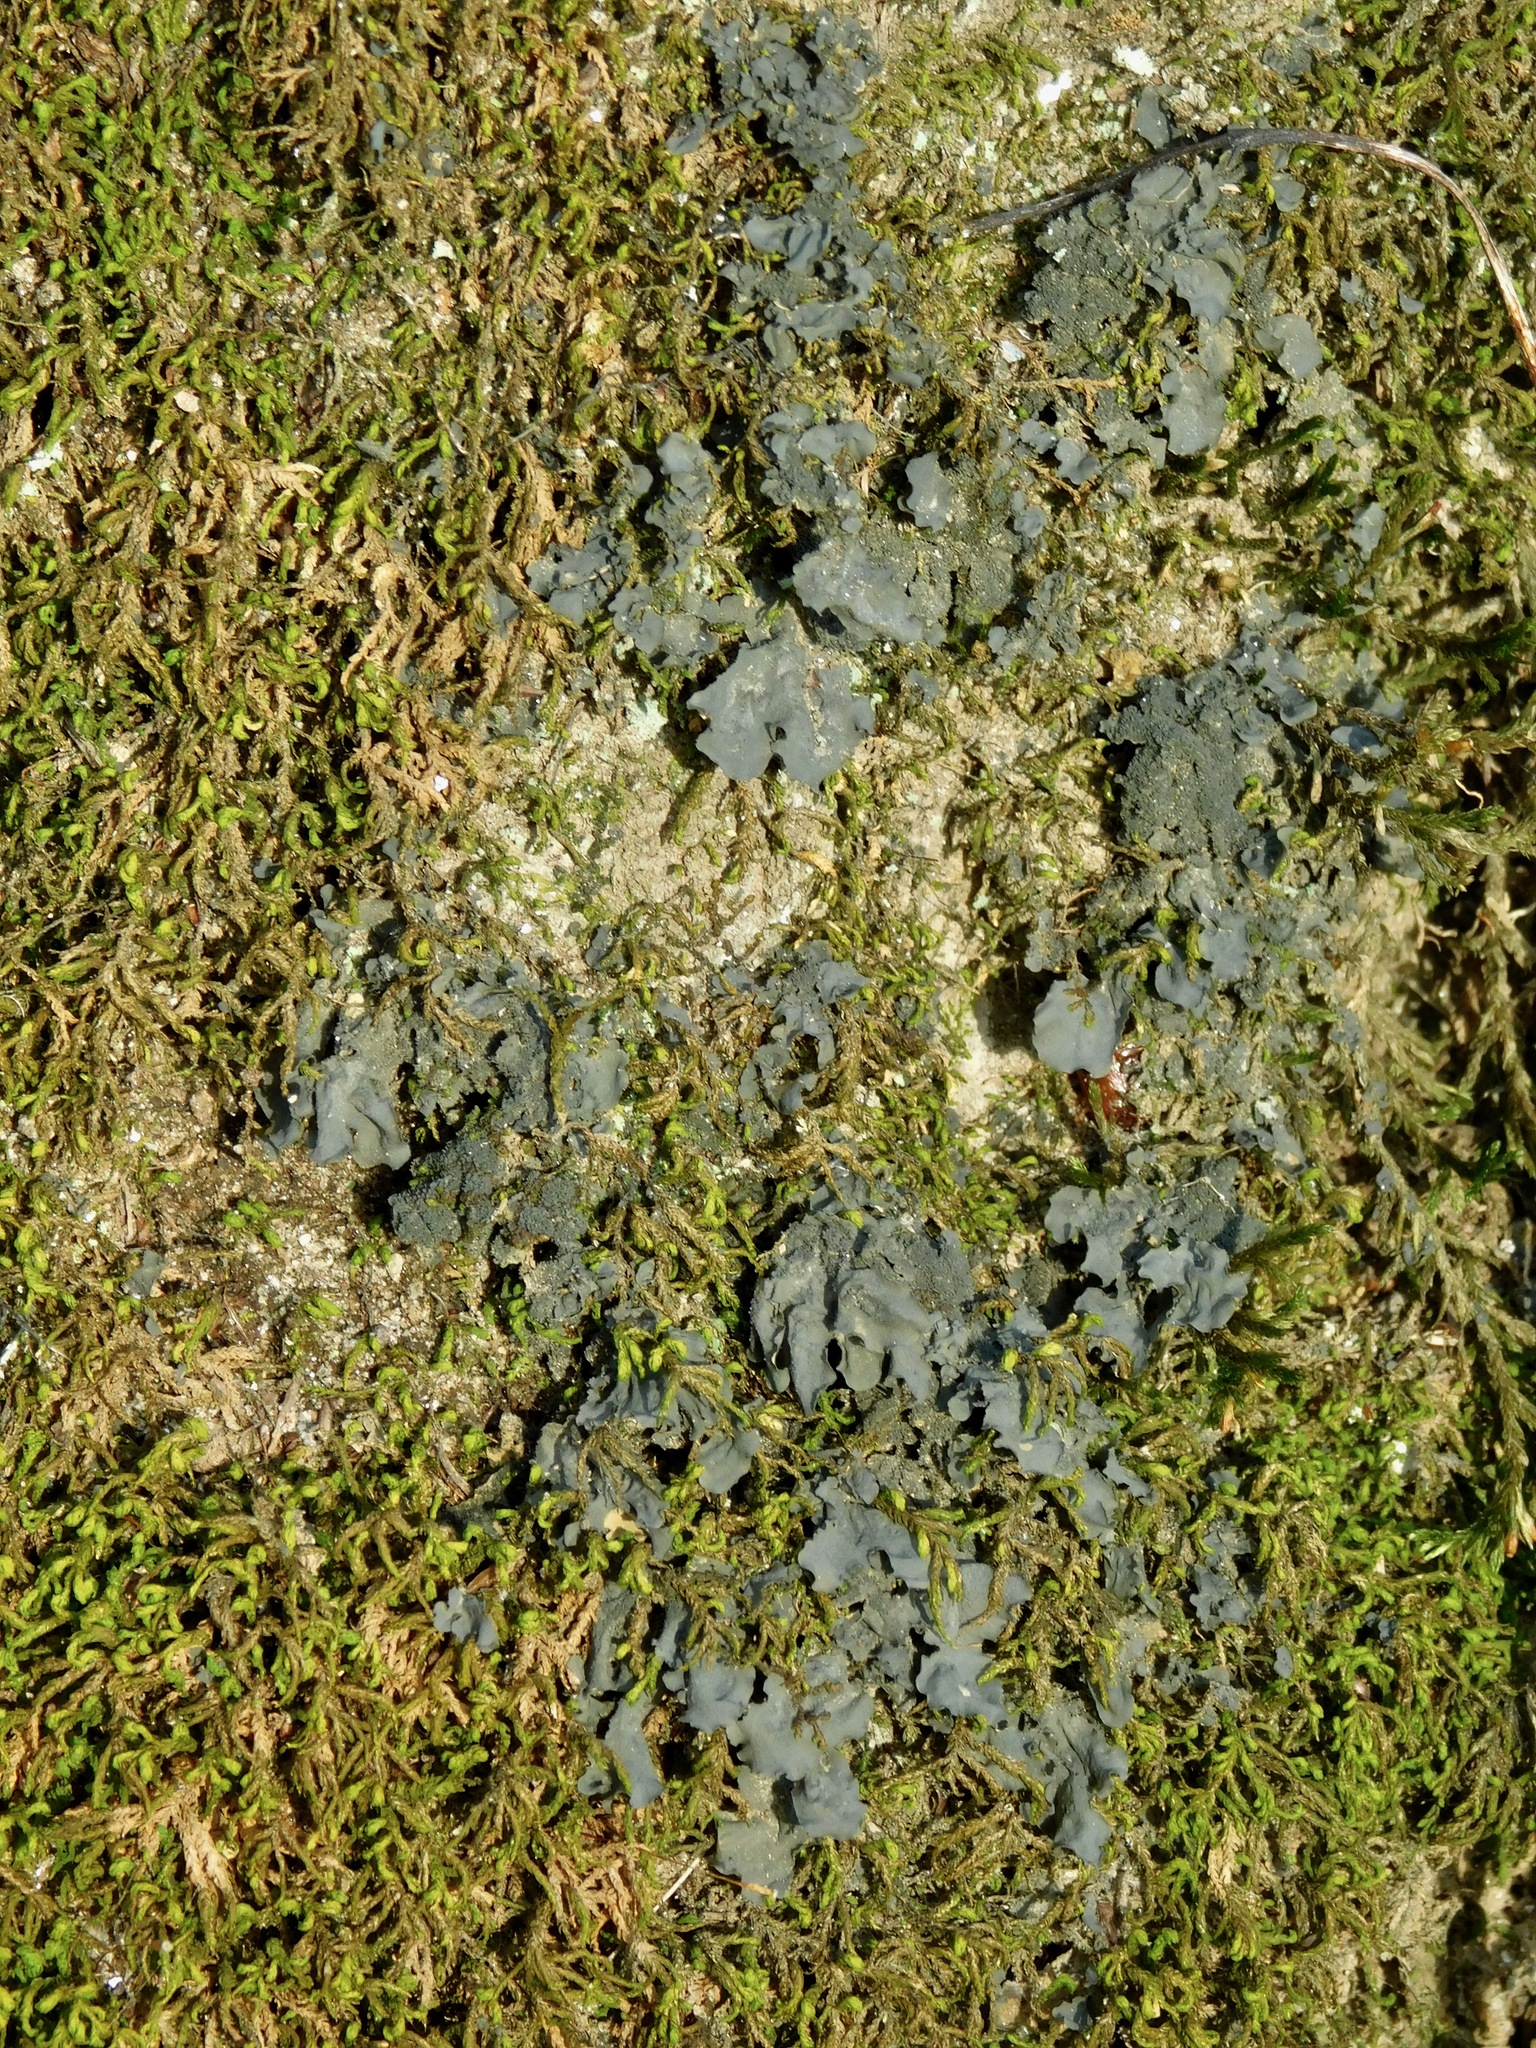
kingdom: Fungi
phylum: Ascomycota
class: Lecanoromycetes
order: Peltigerales
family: Collemataceae
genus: Leptogium
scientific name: Leptogium cyanescens
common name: Blue jellyskin
